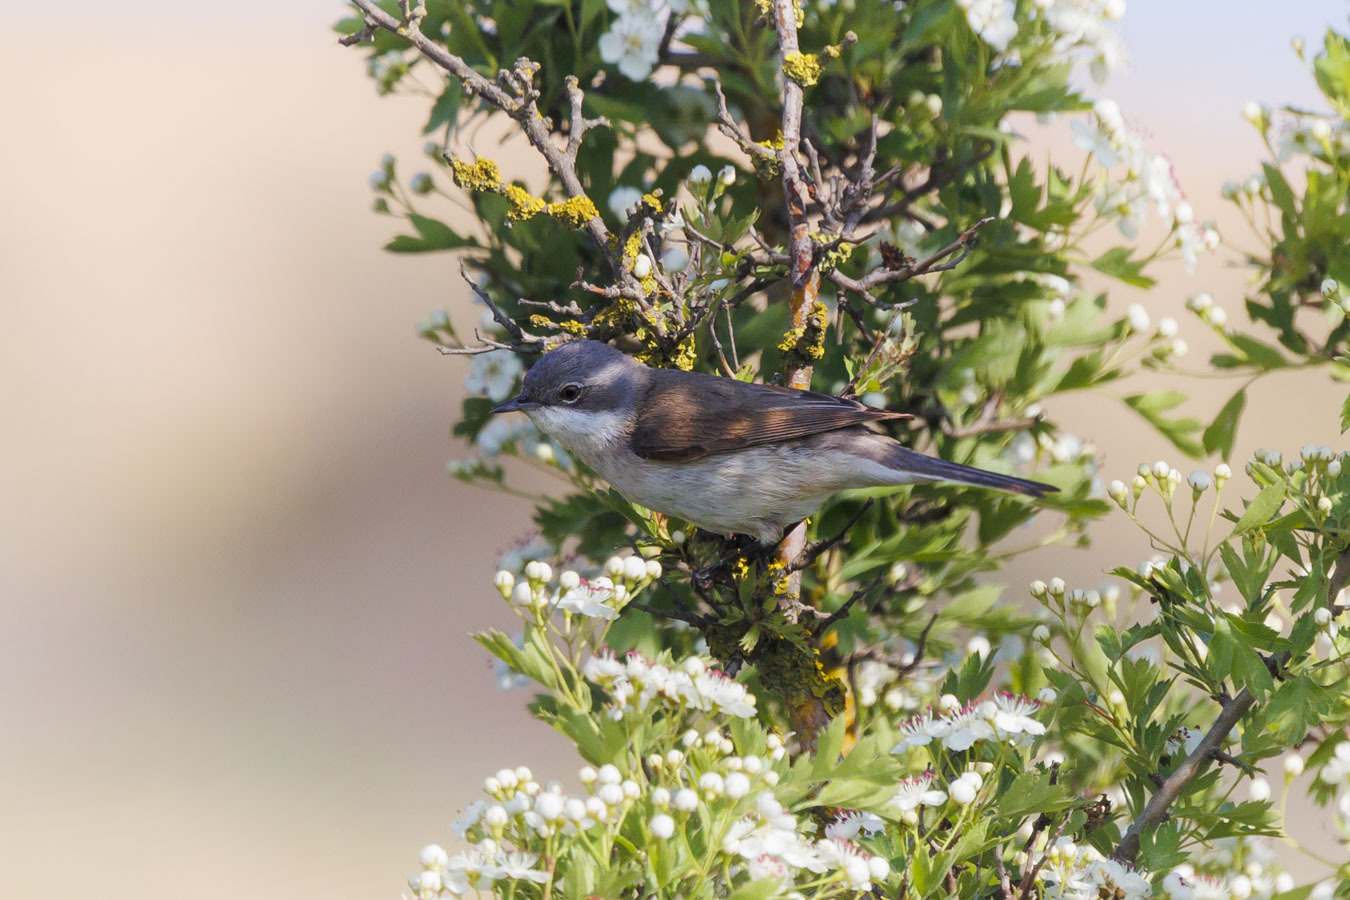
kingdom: Animalia
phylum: Chordata
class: Aves
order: Passeriformes
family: Sylviidae
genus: Sylvia
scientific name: Sylvia curruca
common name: Lesser whitethroat
